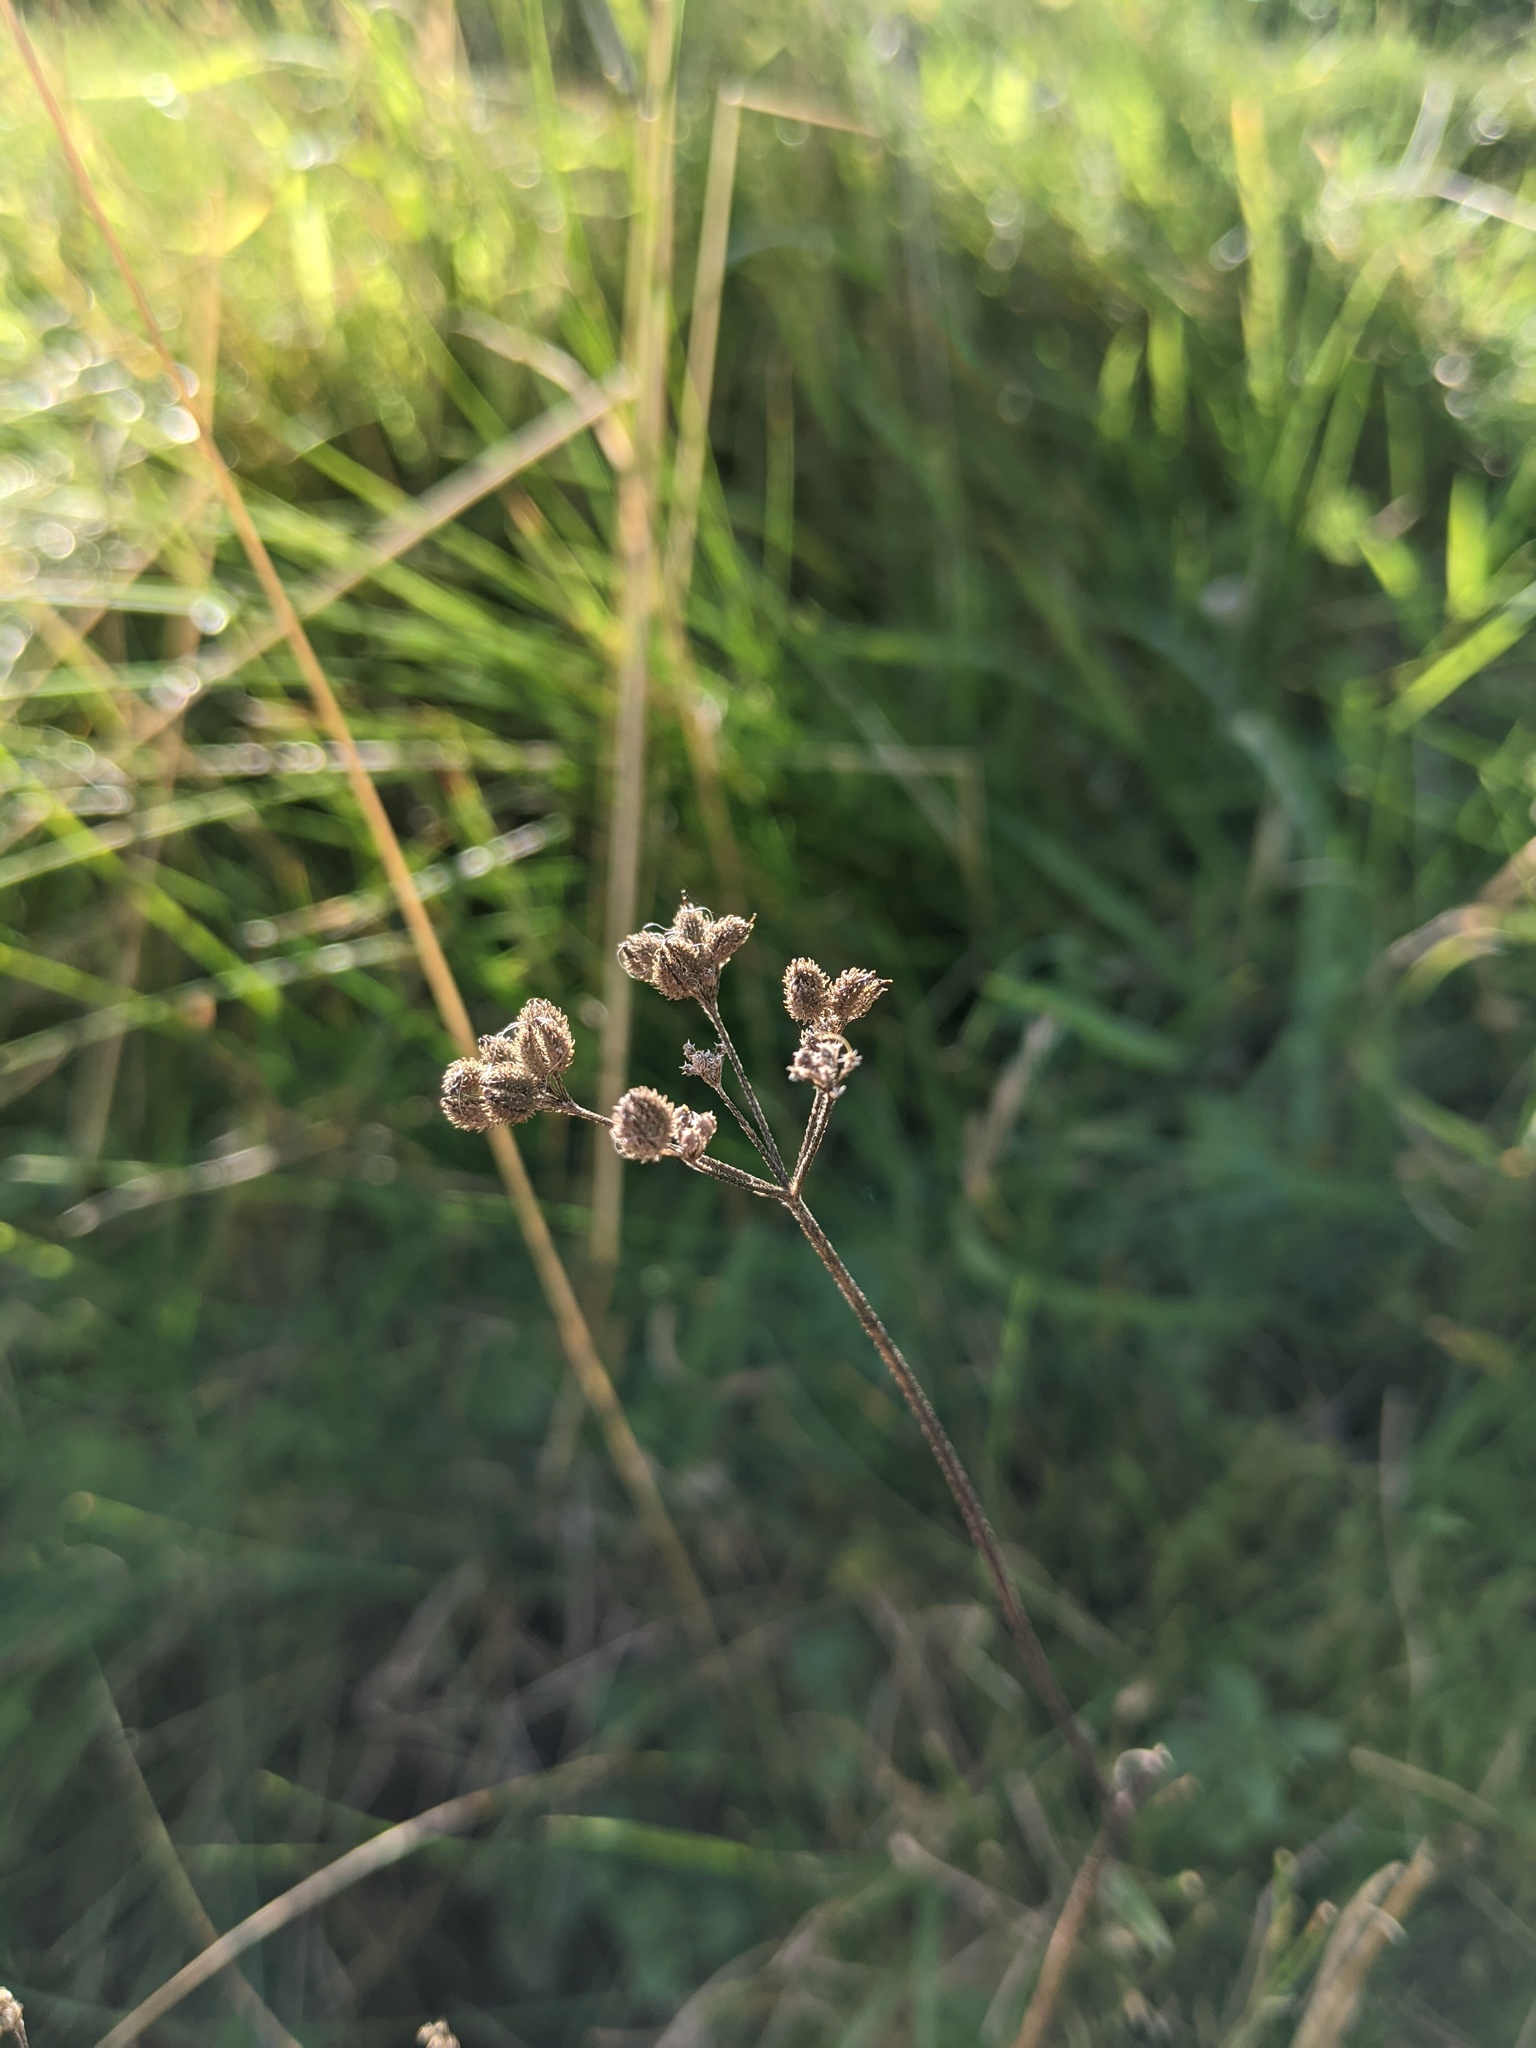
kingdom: Plantae
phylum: Tracheophyta
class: Magnoliopsida
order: Apiales
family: Apiaceae
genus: Torilis
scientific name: Torilis japonica
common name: Upright hedge-parsley
